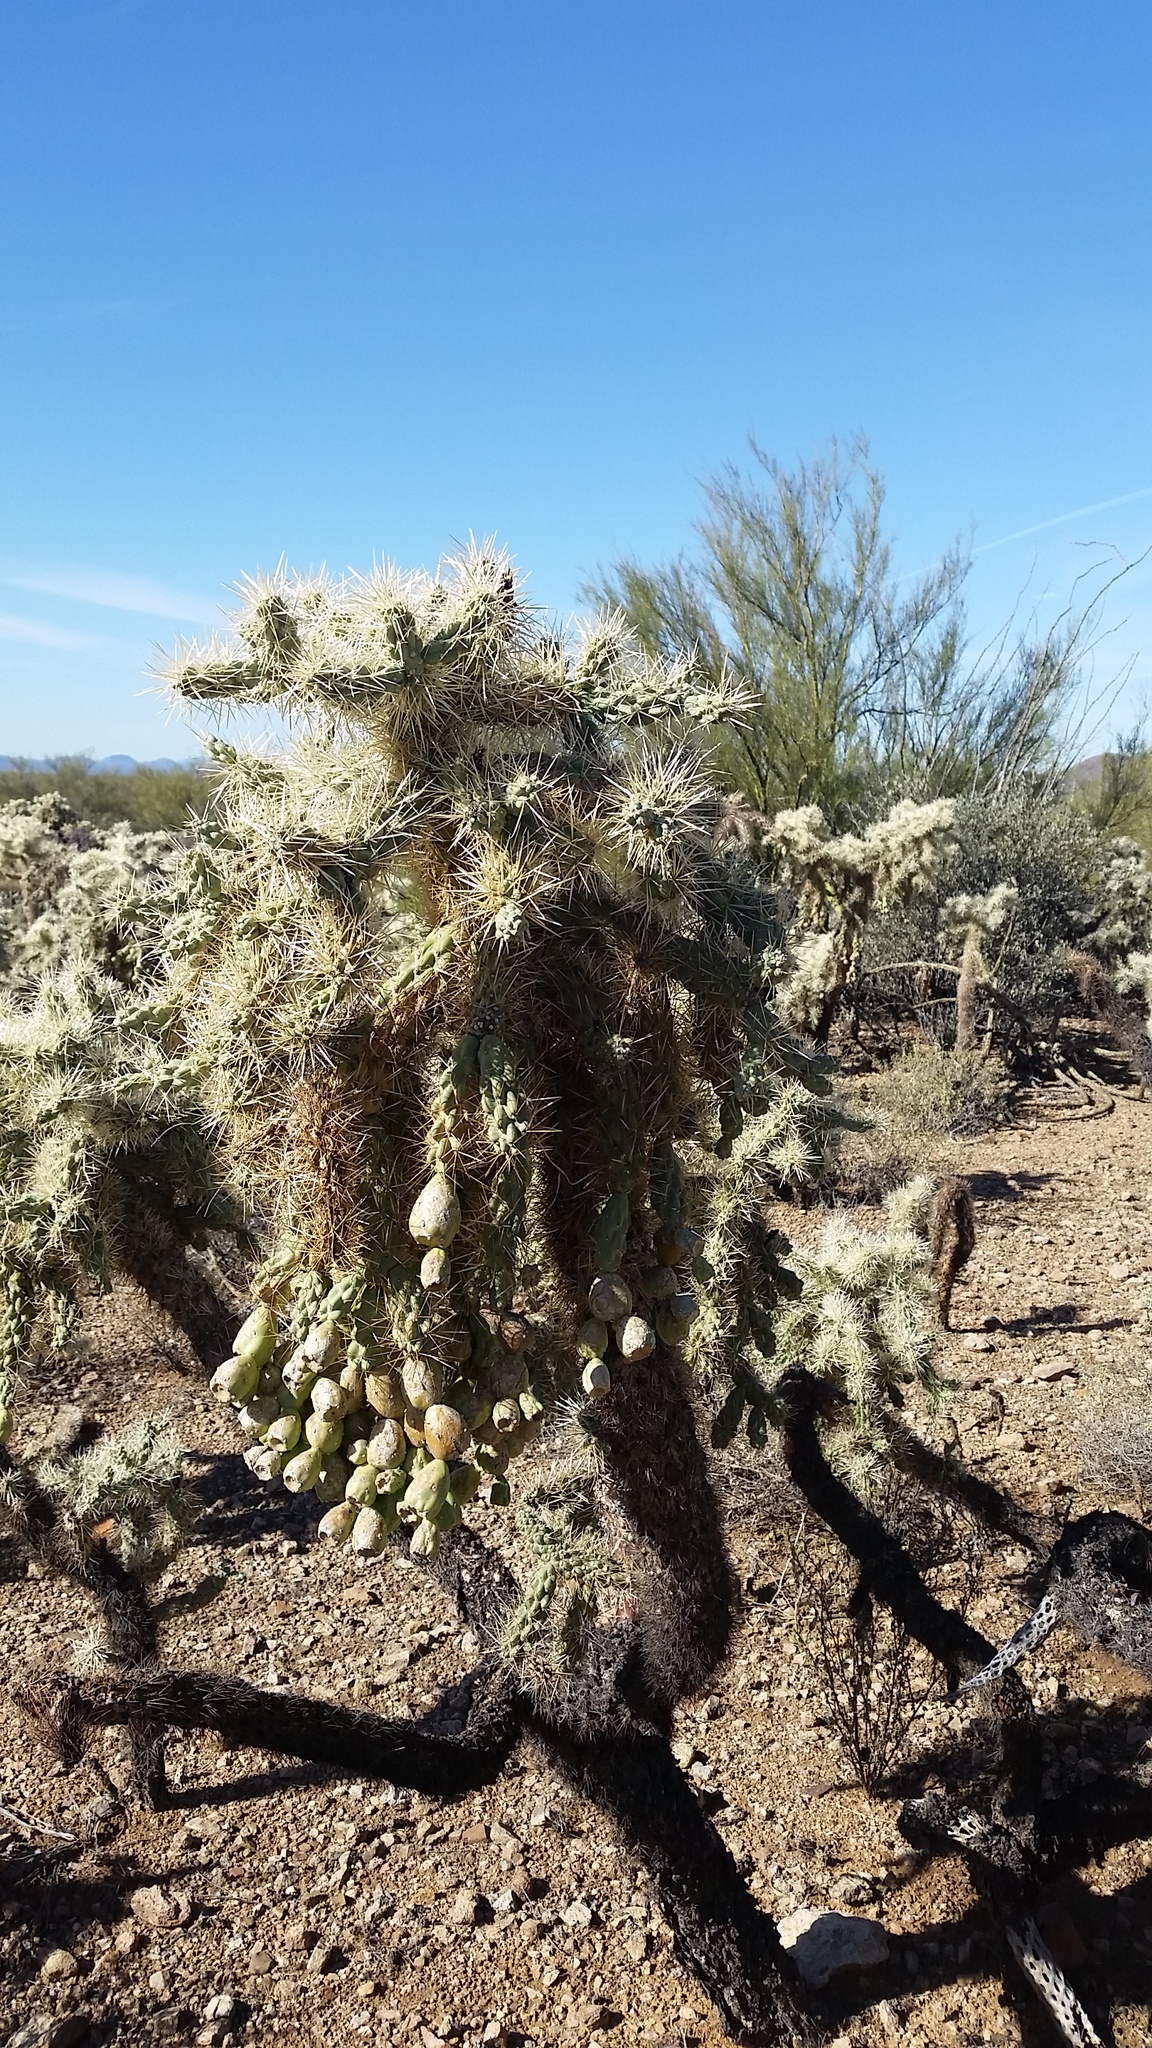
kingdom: Plantae
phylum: Tracheophyta
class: Magnoliopsida
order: Caryophyllales
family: Cactaceae
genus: Cylindropuntia
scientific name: Cylindropuntia fulgida
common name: Jumping cholla
